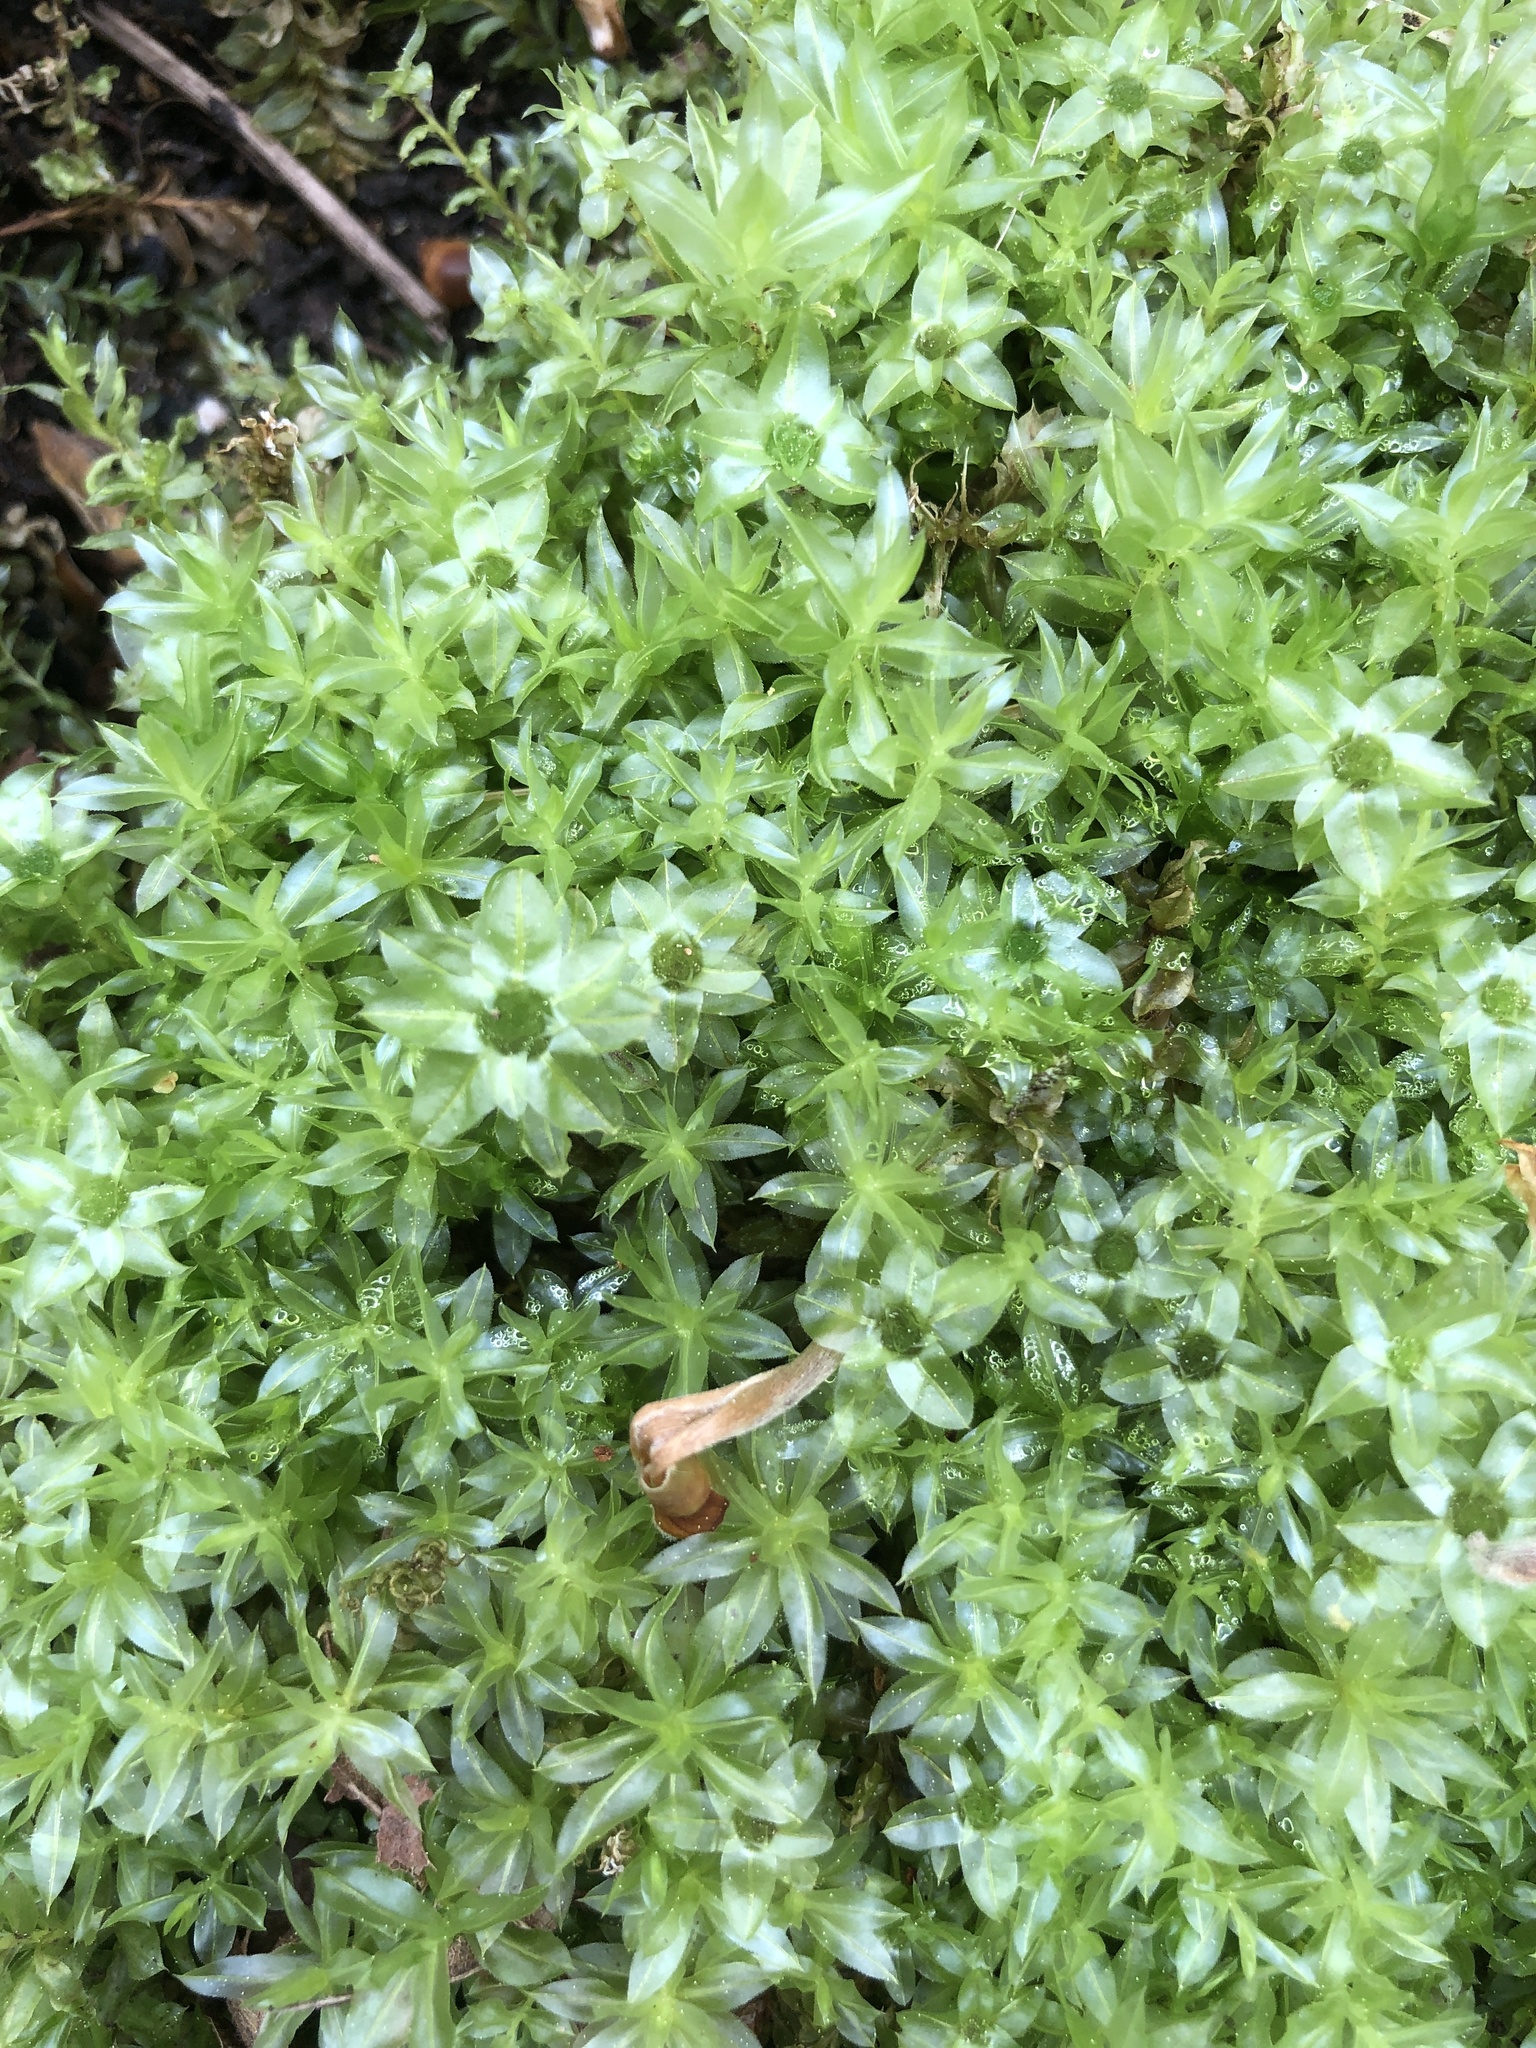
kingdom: Plantae
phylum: Bryophyta
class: Bryopsida
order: Bryales
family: Mniaceae
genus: Plagiomnium
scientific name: Plagiomnium insigne
